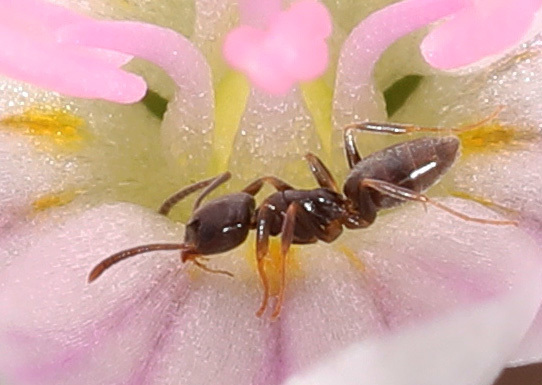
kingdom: Animalia
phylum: Arthropoda
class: Insecta
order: Hymenoptera
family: Formicidae
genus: Tapinoma
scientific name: Tapinoma sessile
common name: Odorous house ant
